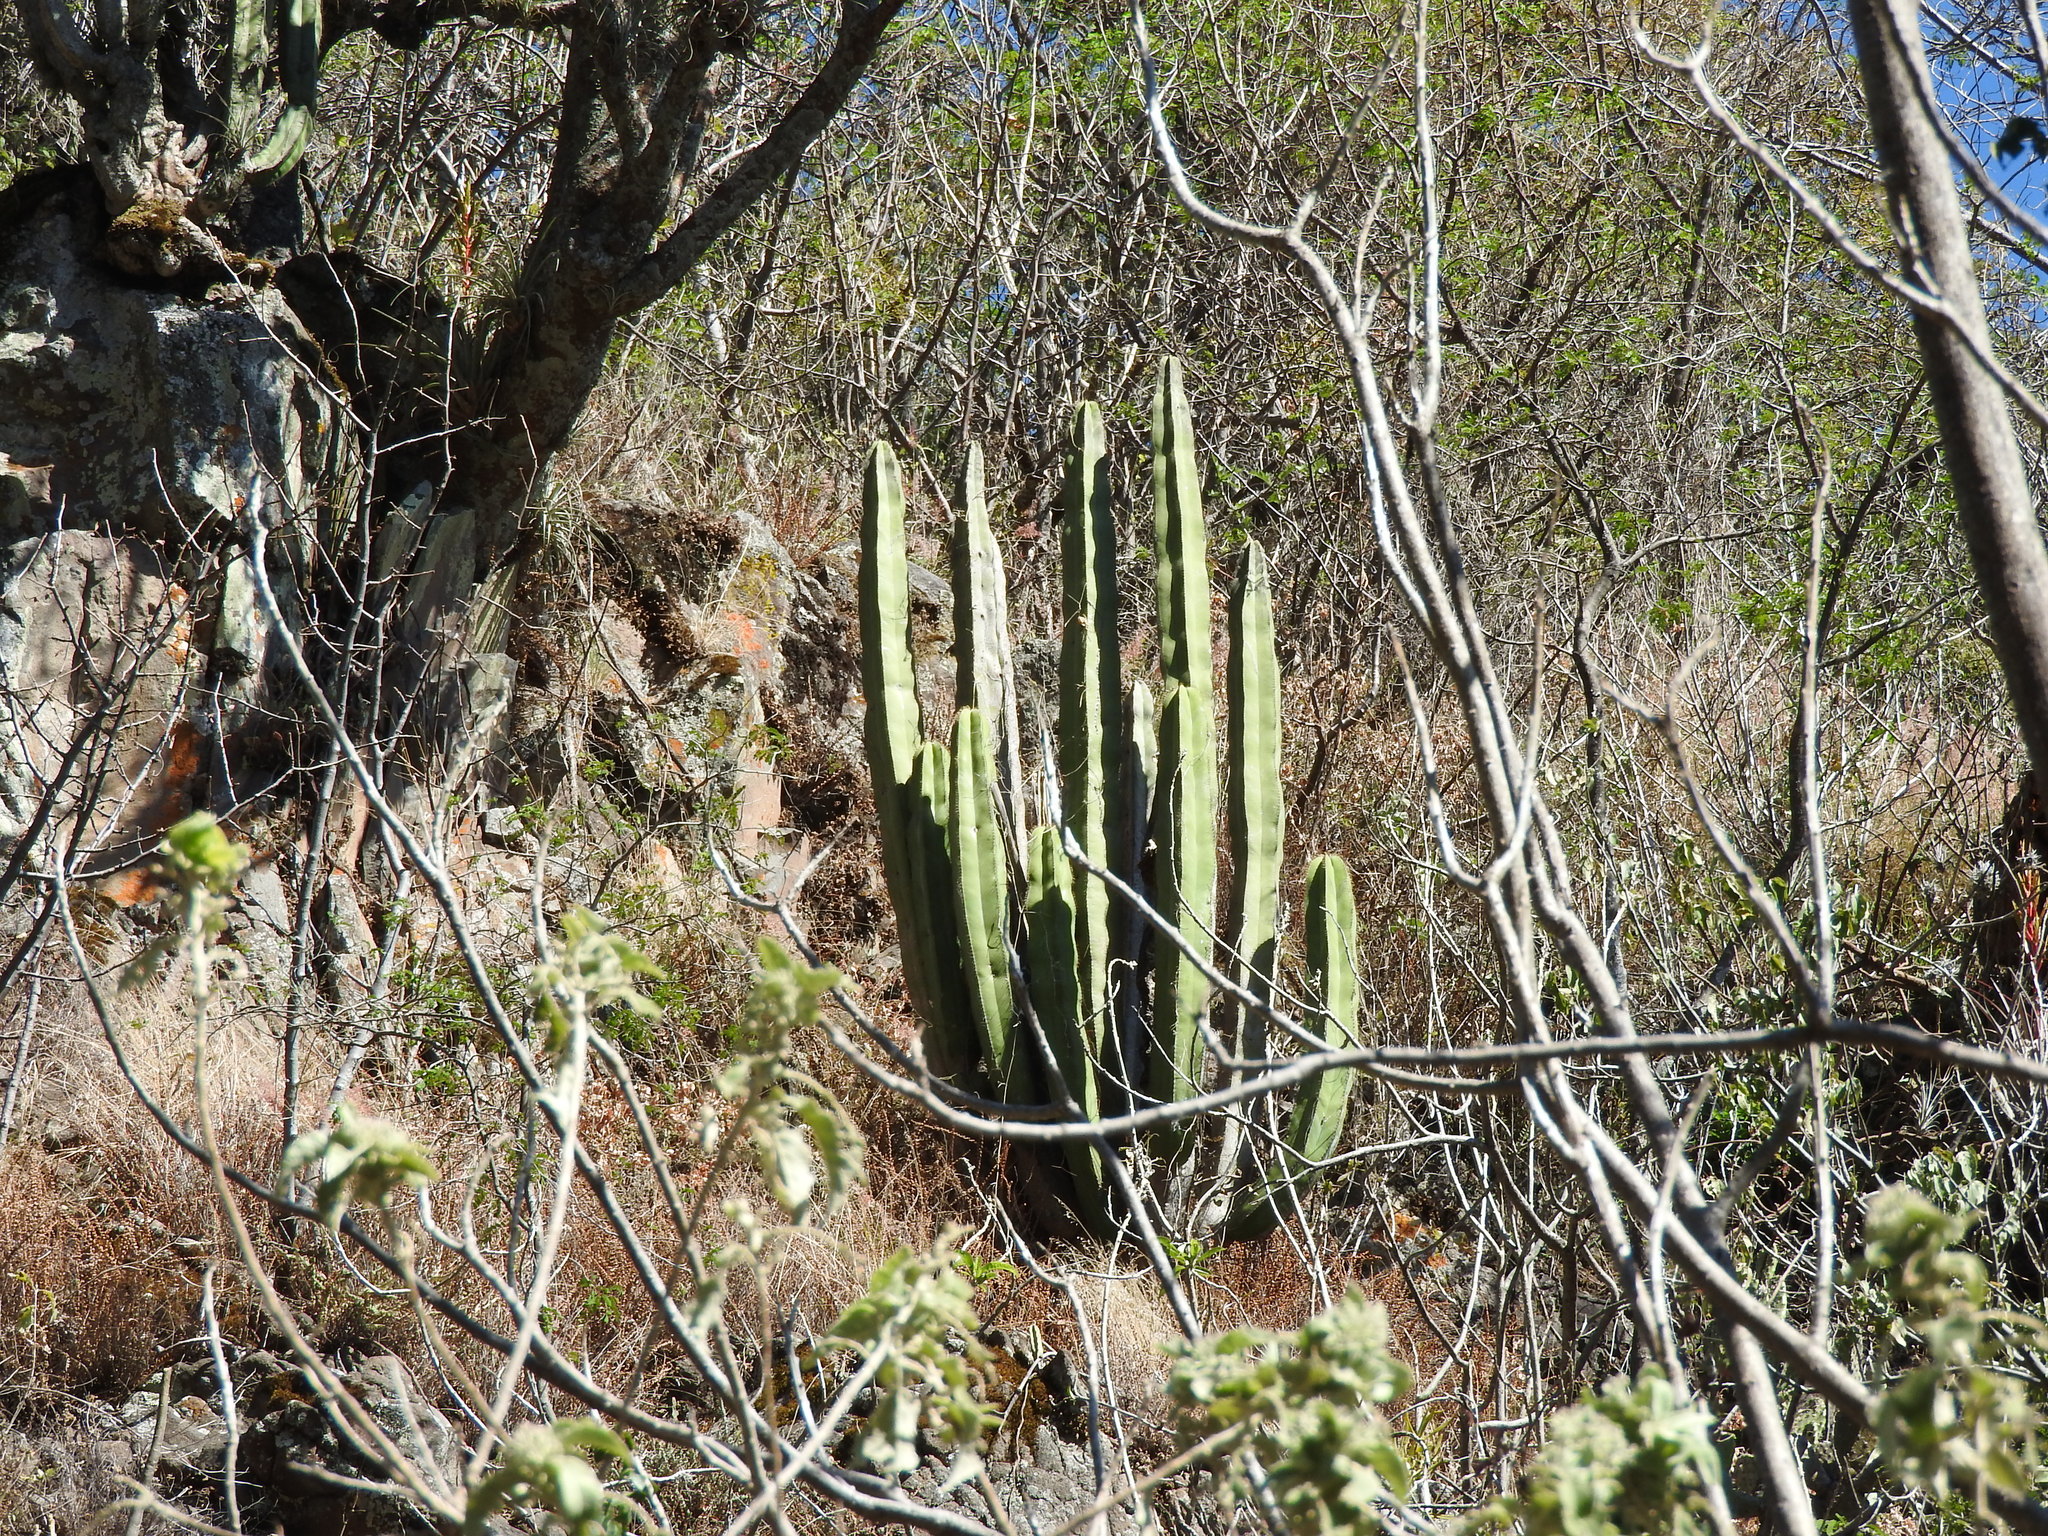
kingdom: Plantae
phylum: Tracheophyta
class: Magnoliopsida
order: Caryophyllales
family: Cactaceae
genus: Stenocereus
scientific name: Stenocereus dumortieri
